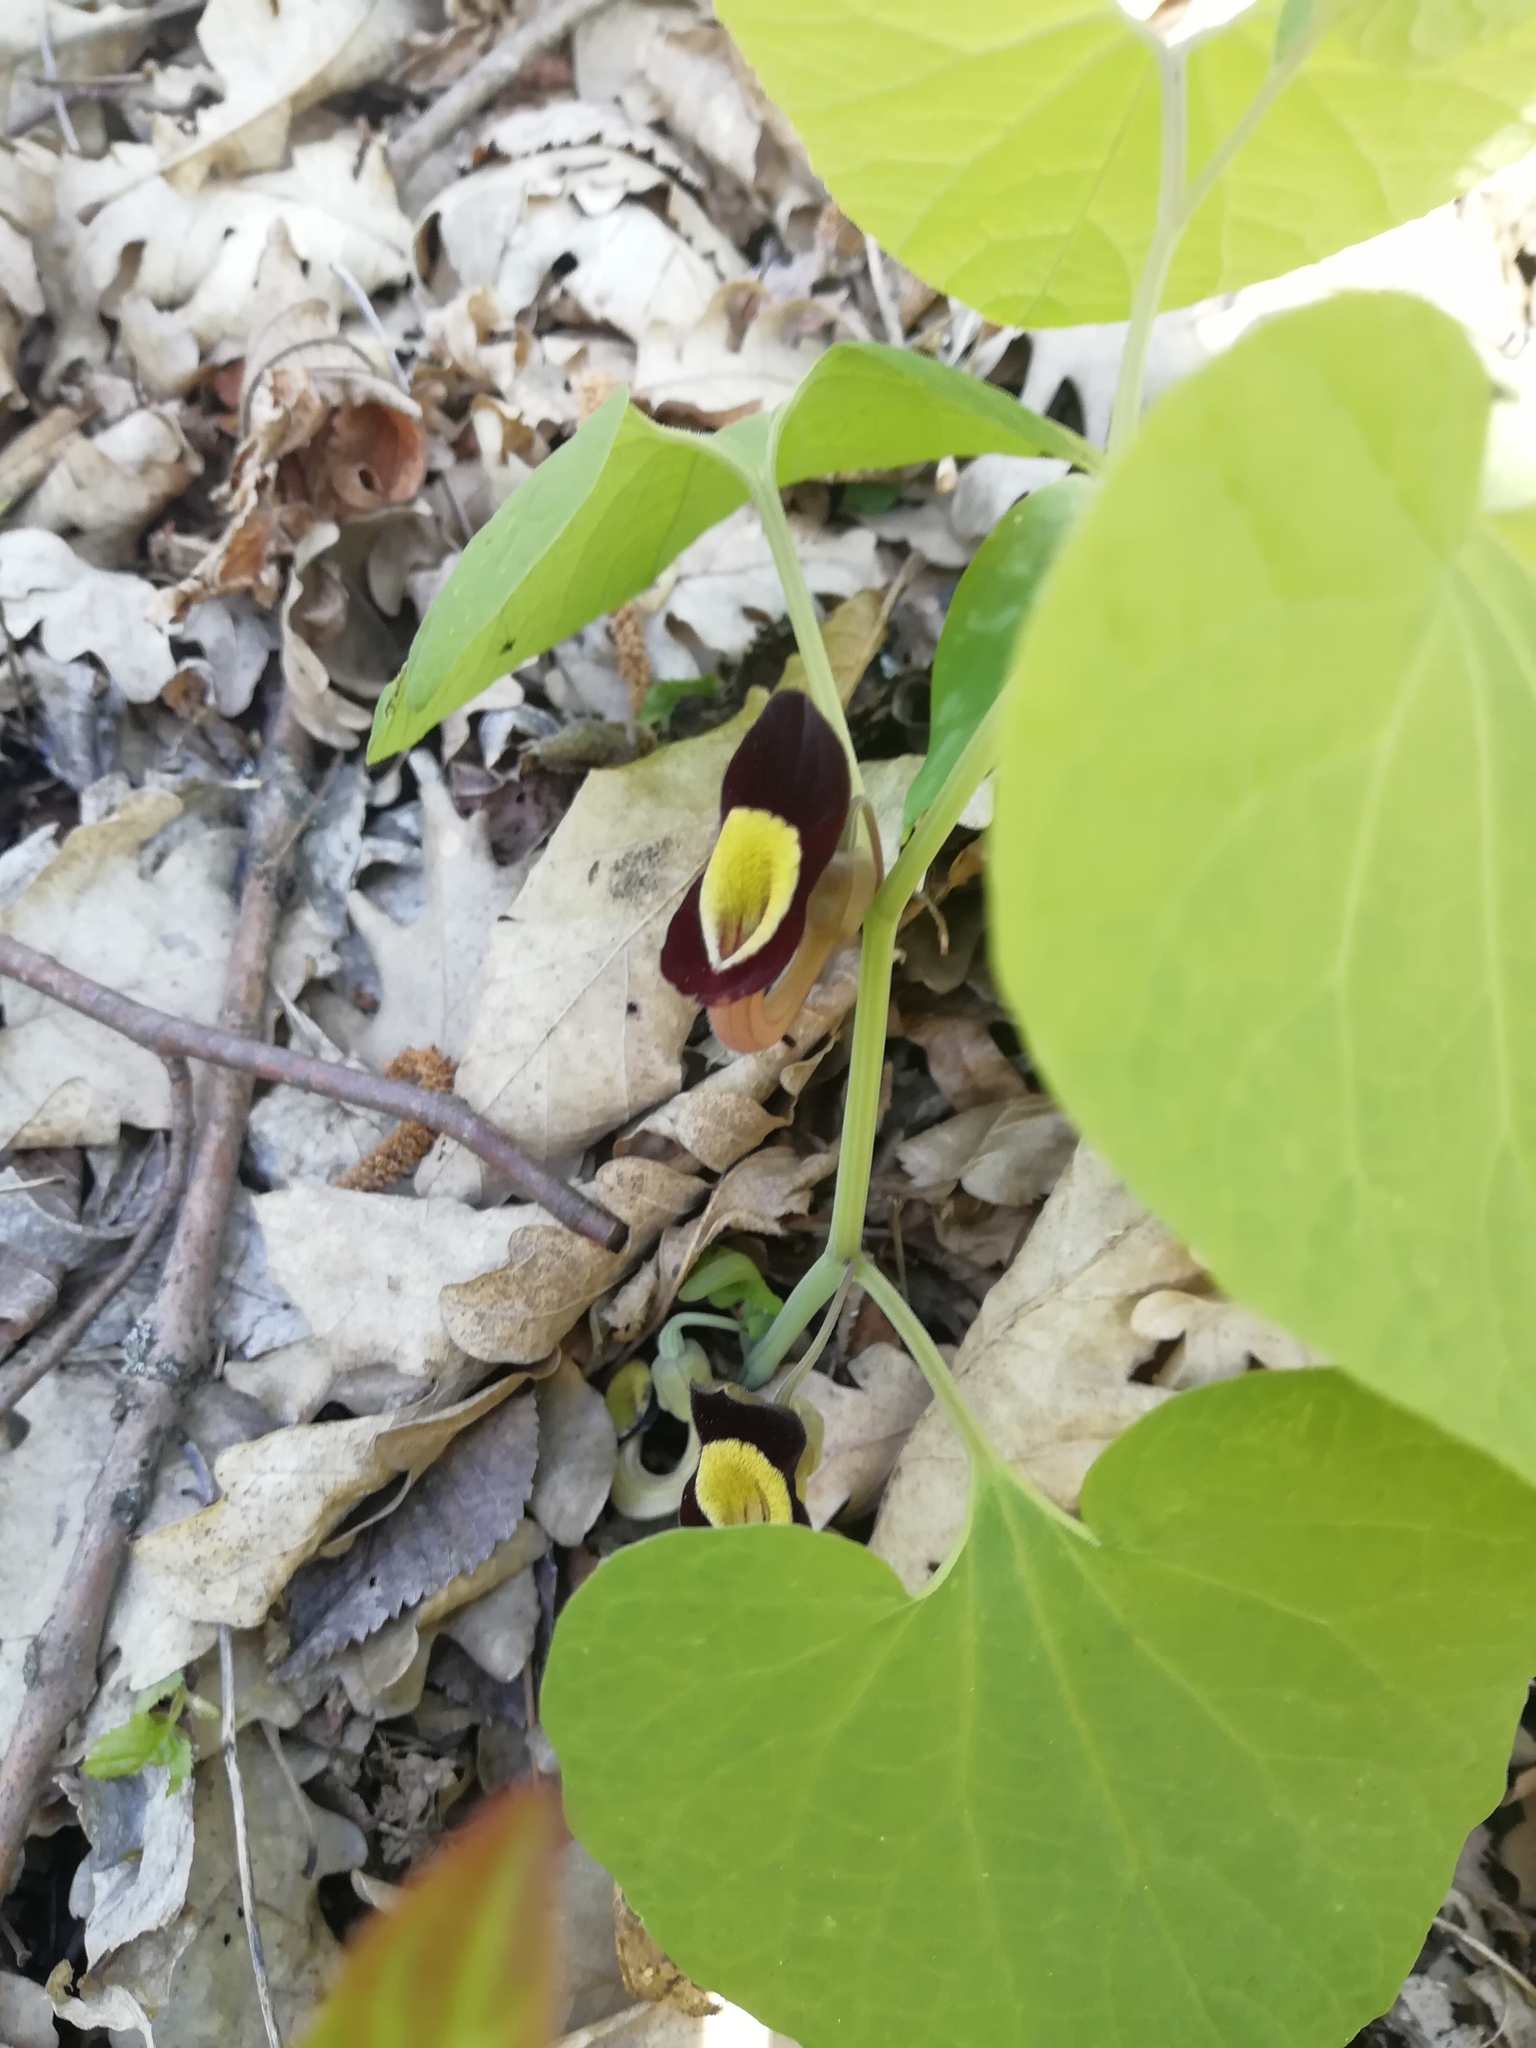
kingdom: Plantae
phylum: Tracheophyta
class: Magnoliopsida
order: Piperales
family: Aristolochiaceae
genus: Aristolochia
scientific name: Aristolochia steupii
